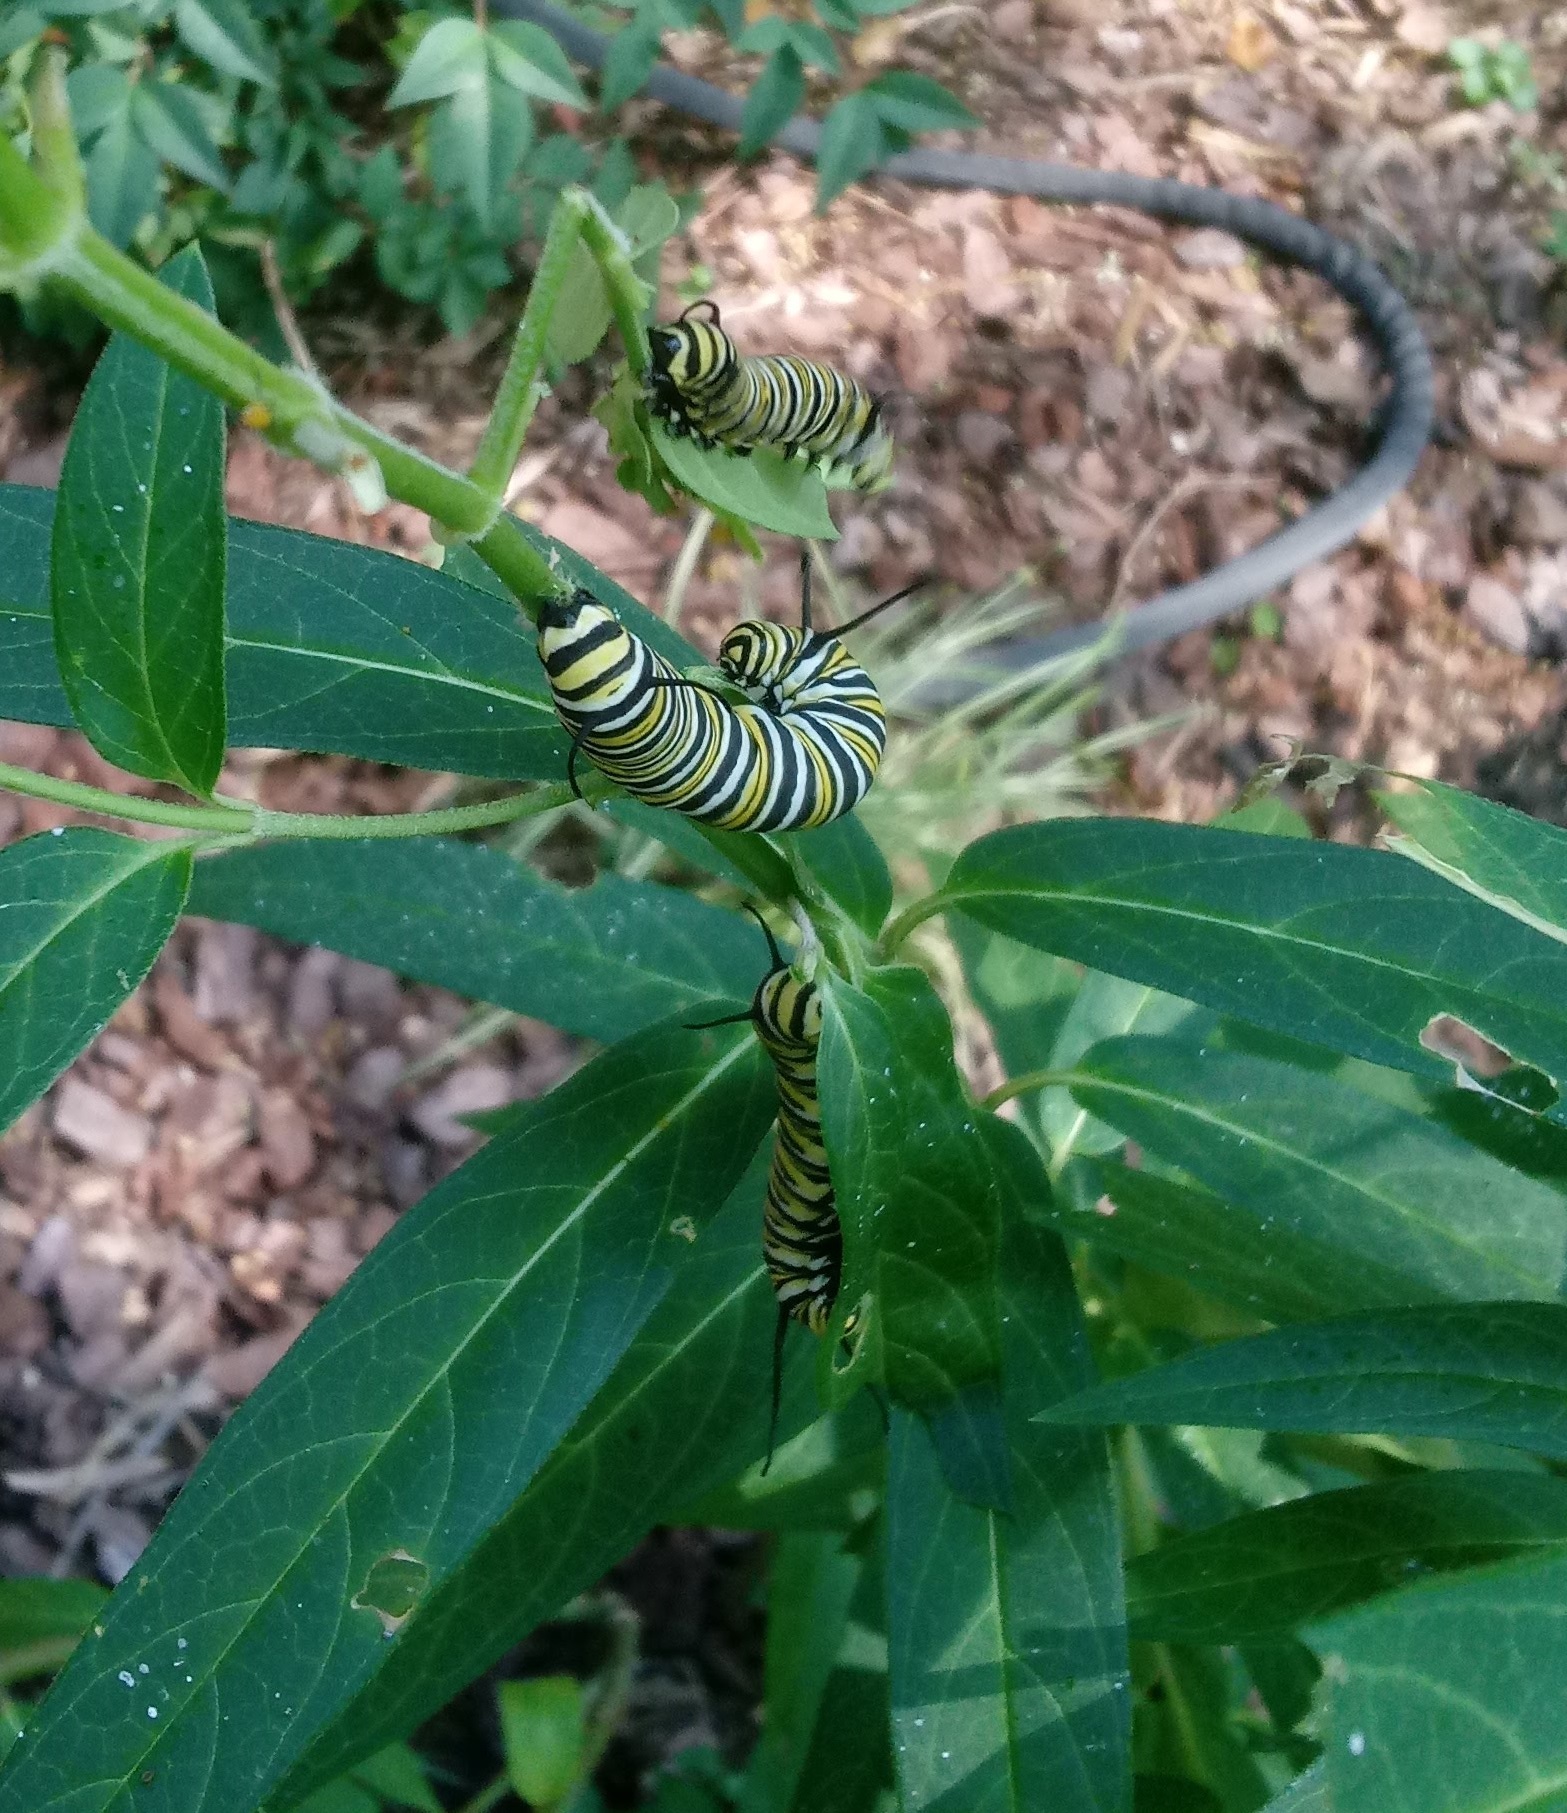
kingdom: Animalia
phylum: Arthropoda
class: Insecta
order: Lepidoptera
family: Nymphalidae
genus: Danaus
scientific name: Danaus plexippus
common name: Monarch
